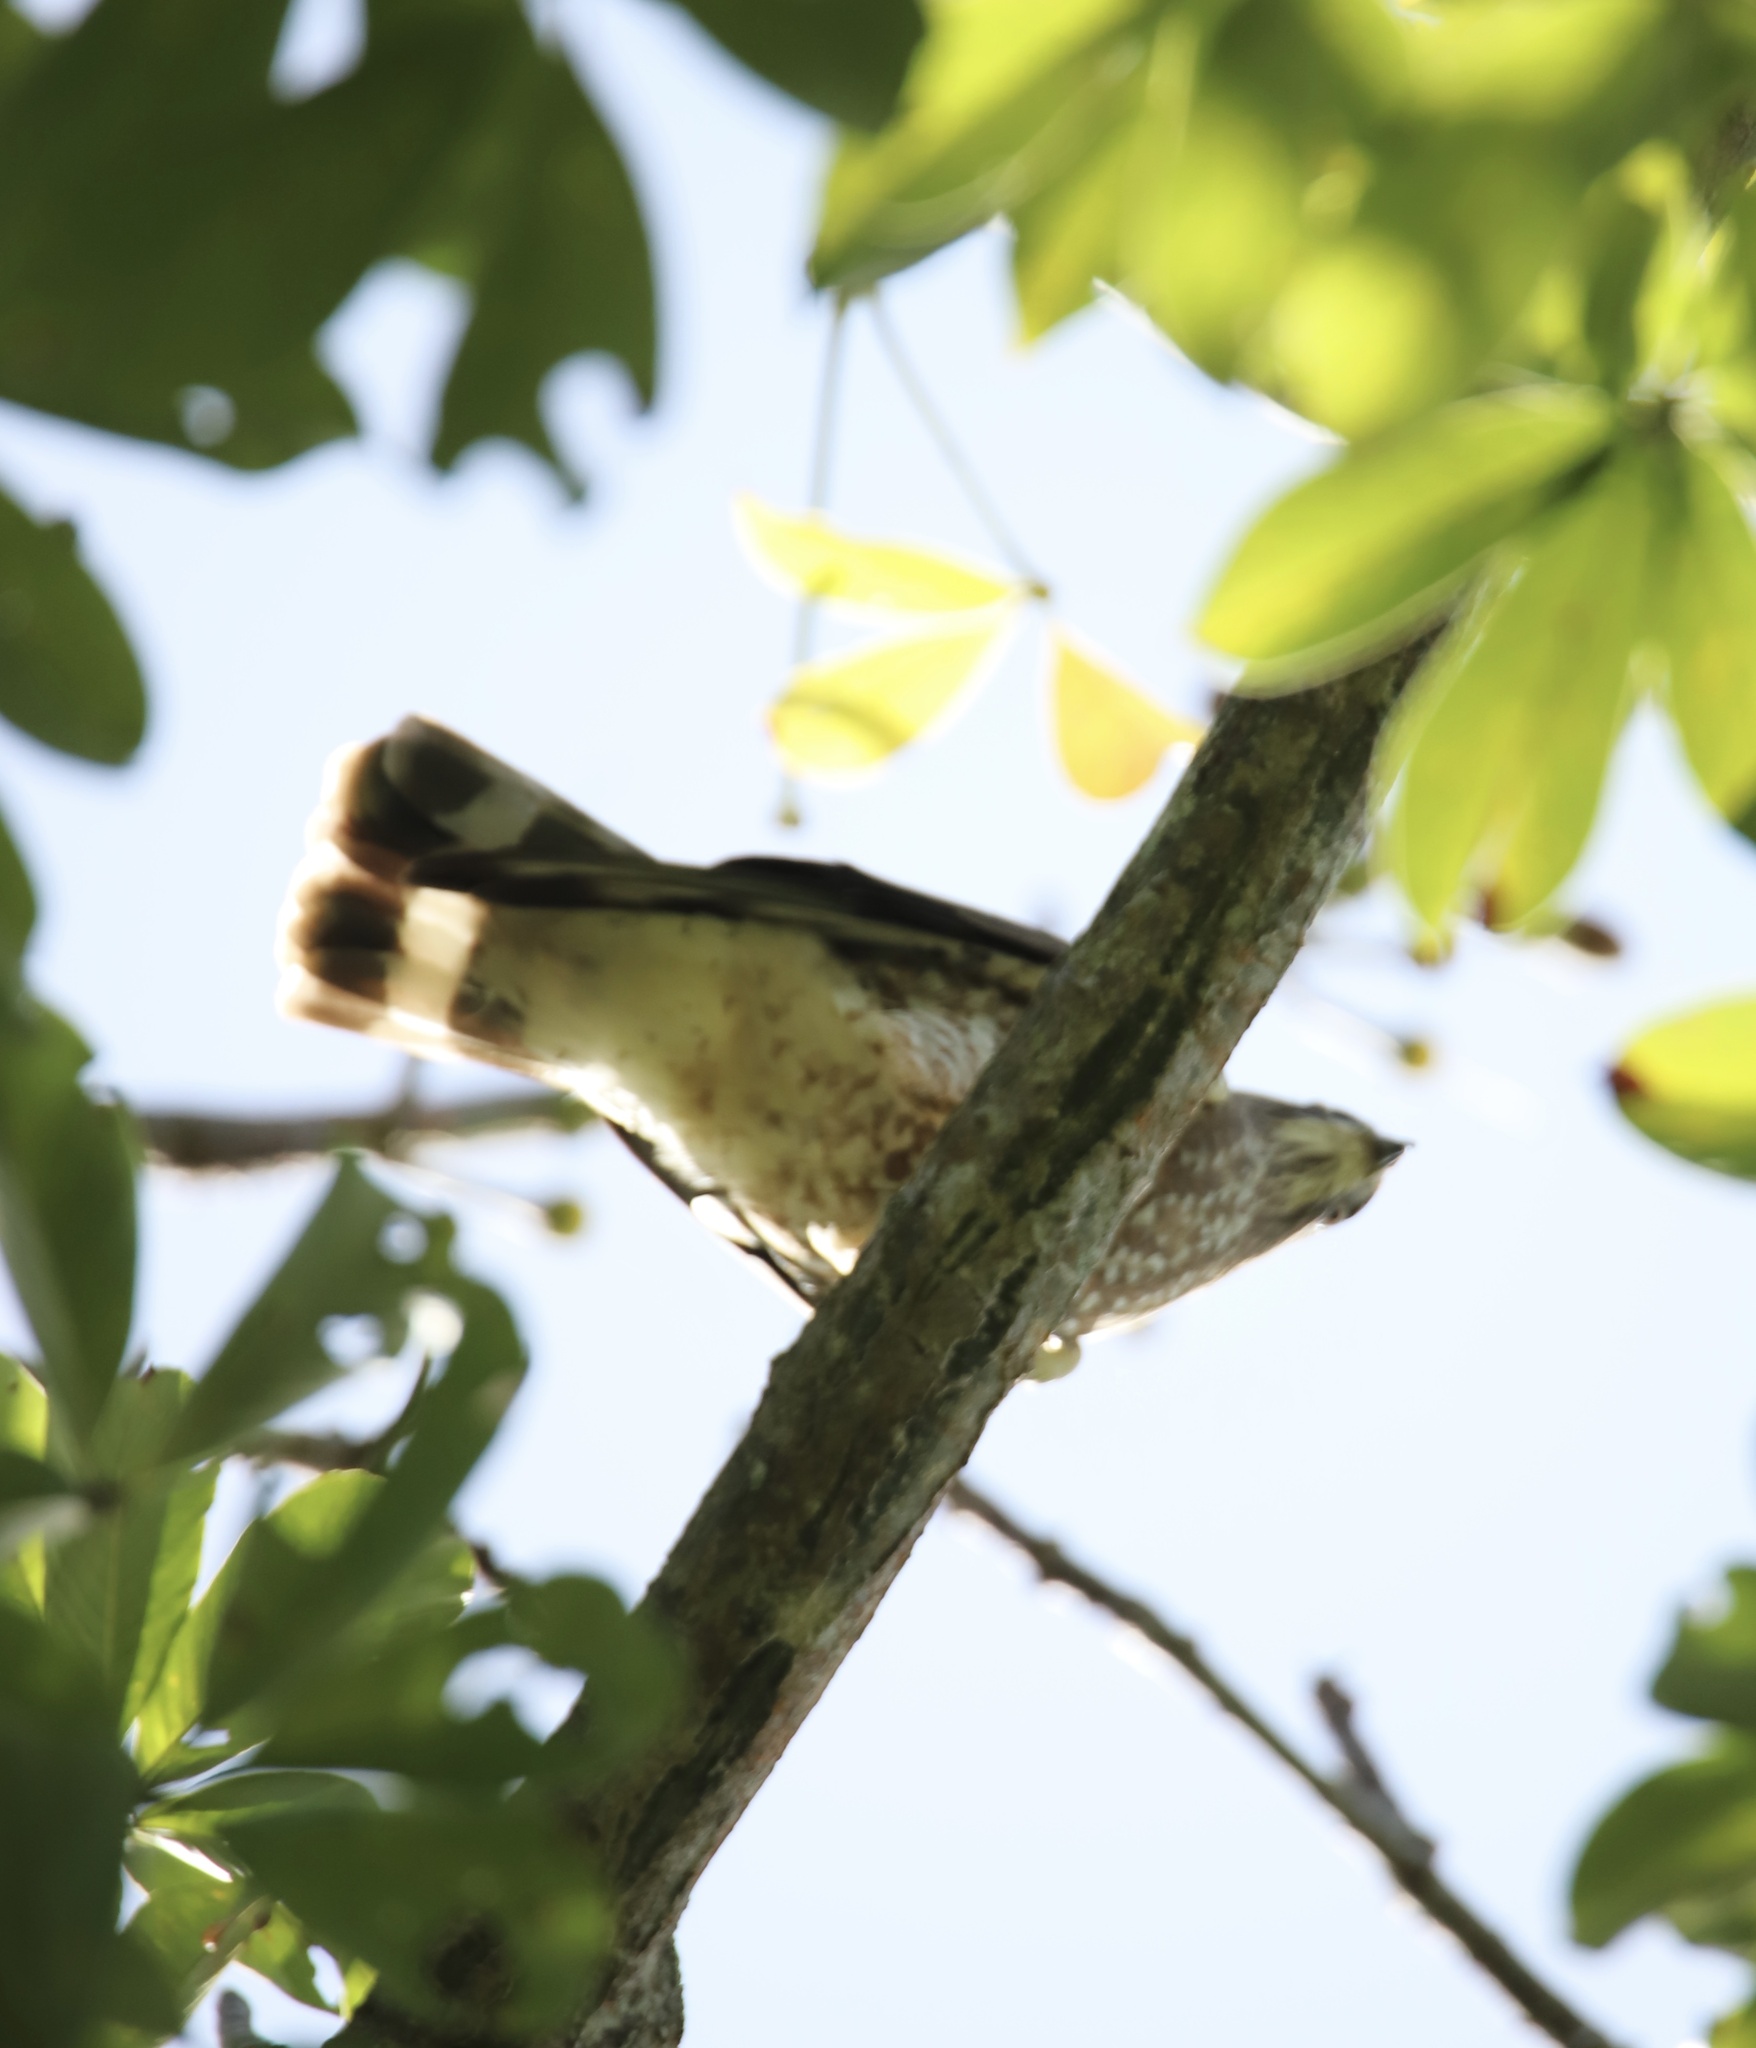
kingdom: Animalia
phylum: Chordata
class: Aves
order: Accipitriformes
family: Accipitridae
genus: Buteo
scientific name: Buteo platypterus
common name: Broad-winged hawk
